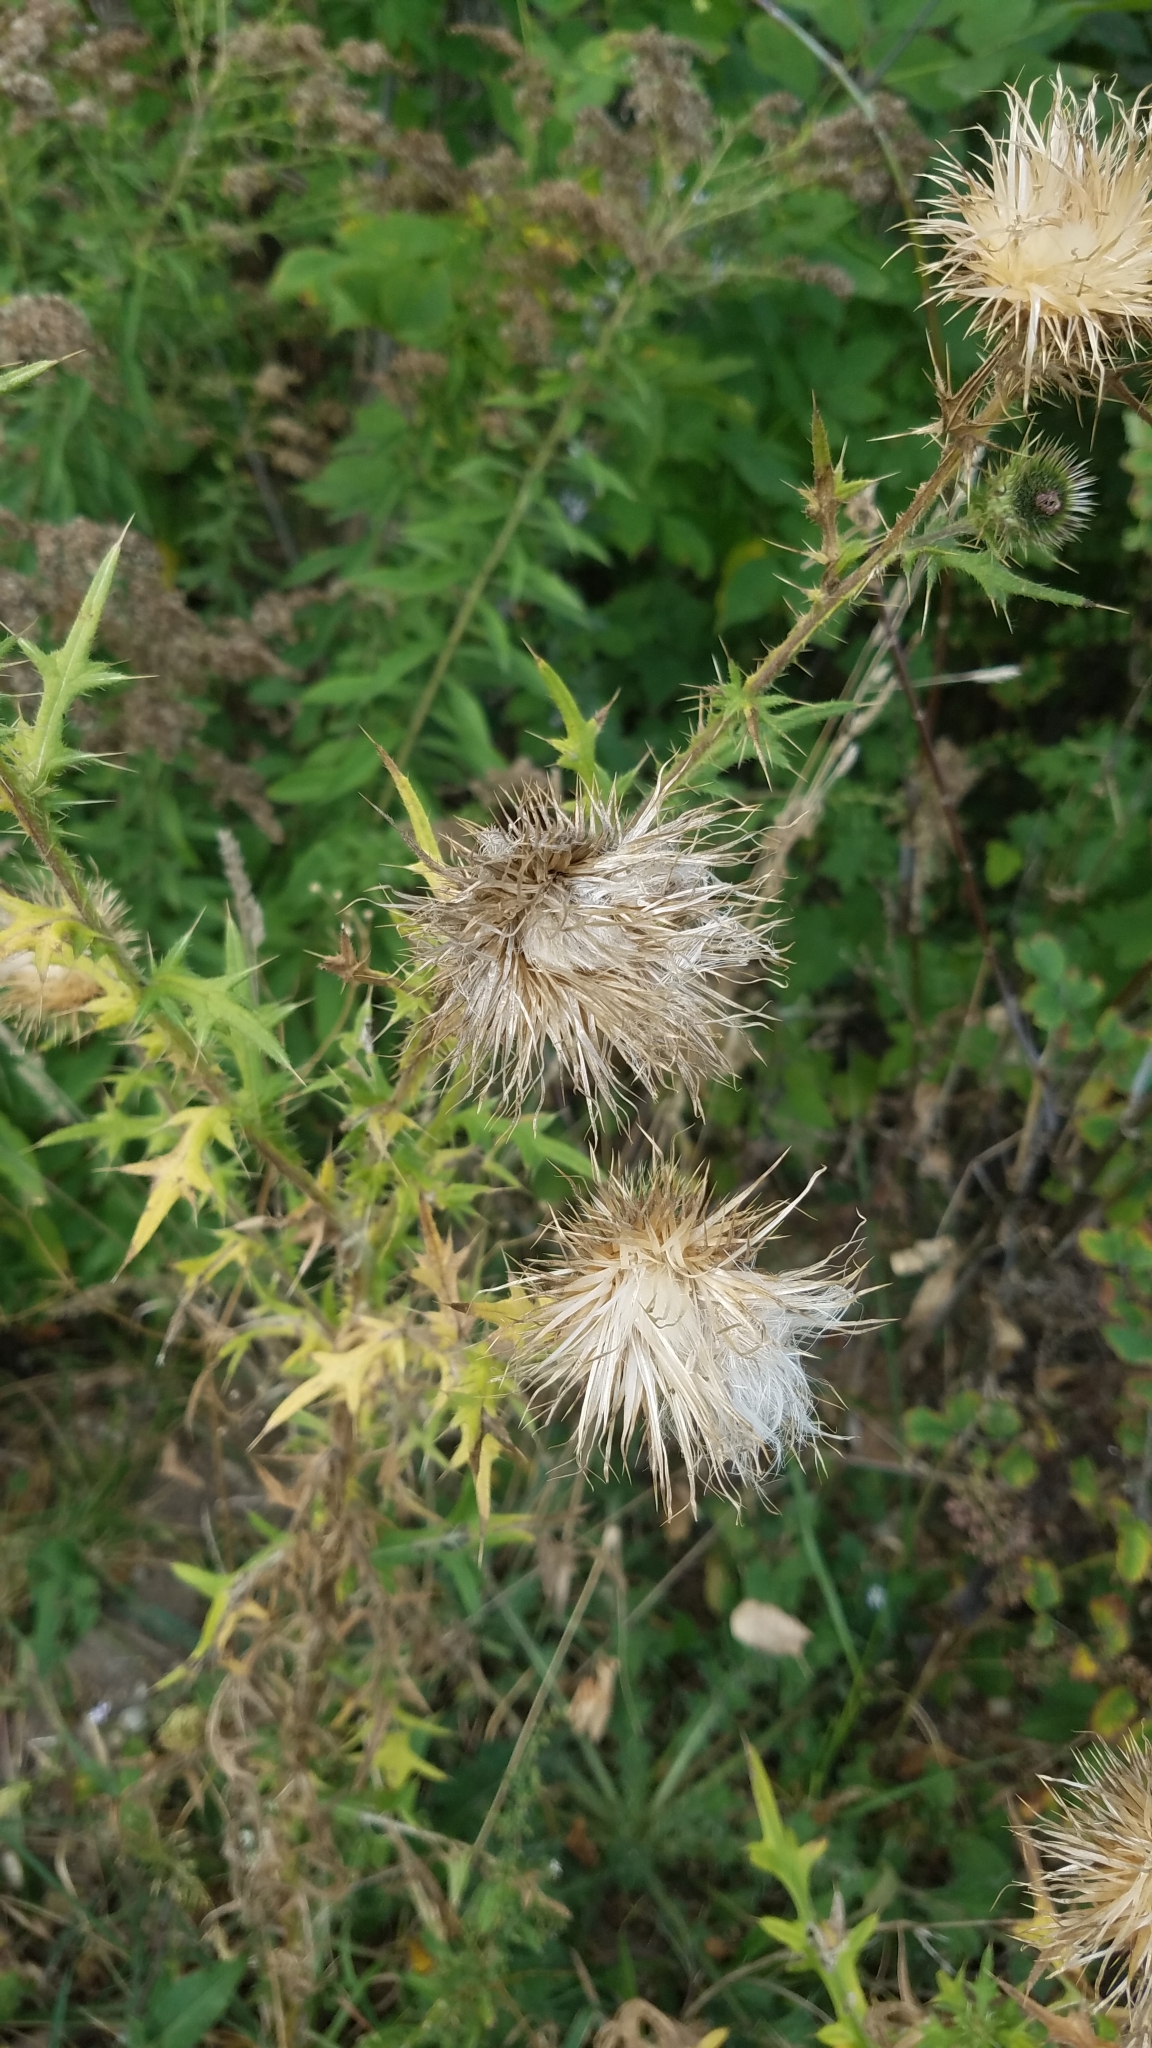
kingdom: Plantae
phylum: Tracheophyta
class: Magnoliopsida
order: Asterales
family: Asteraceae
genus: Cirsium
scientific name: Cirsium vulgare
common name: Bull thistle
